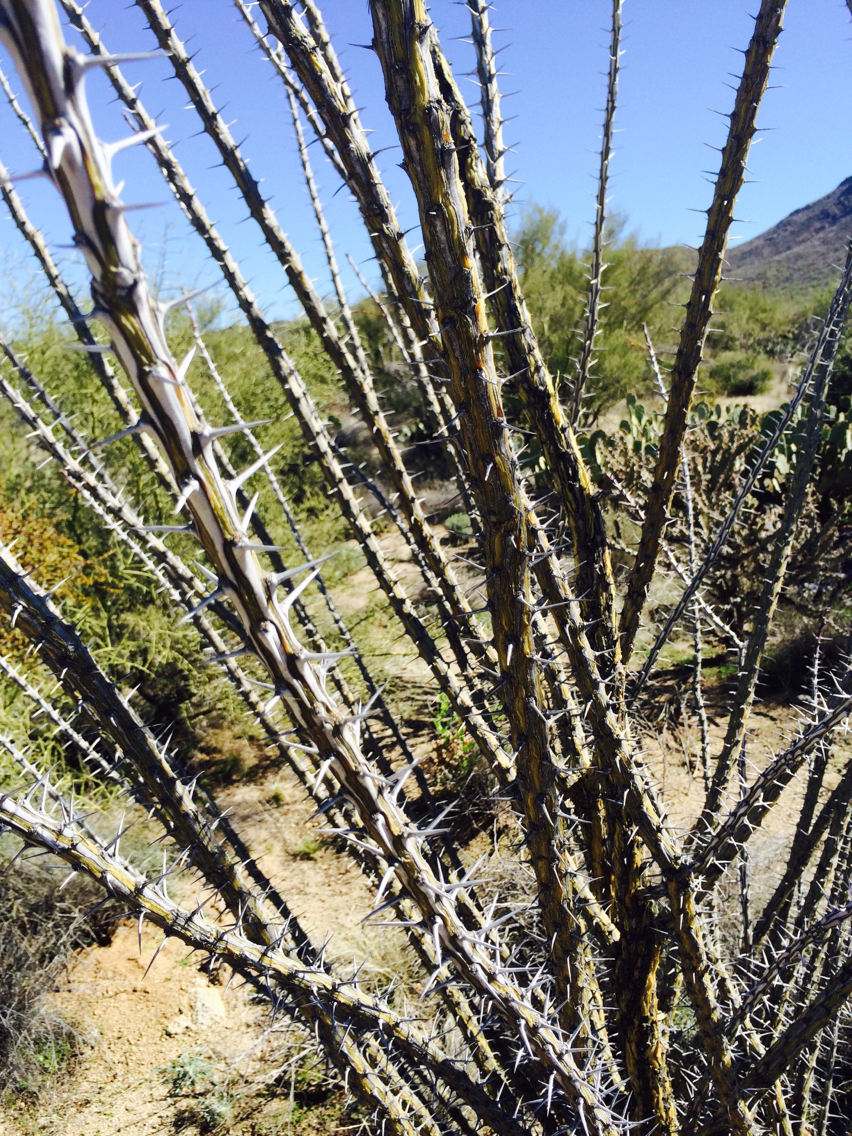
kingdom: Plantae
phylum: Tracheophyta
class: Magnoliopsida
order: Ericales
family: Fouquieriaceae
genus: Fouquieria
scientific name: Fouquieria splendens
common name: Vine-cactus
